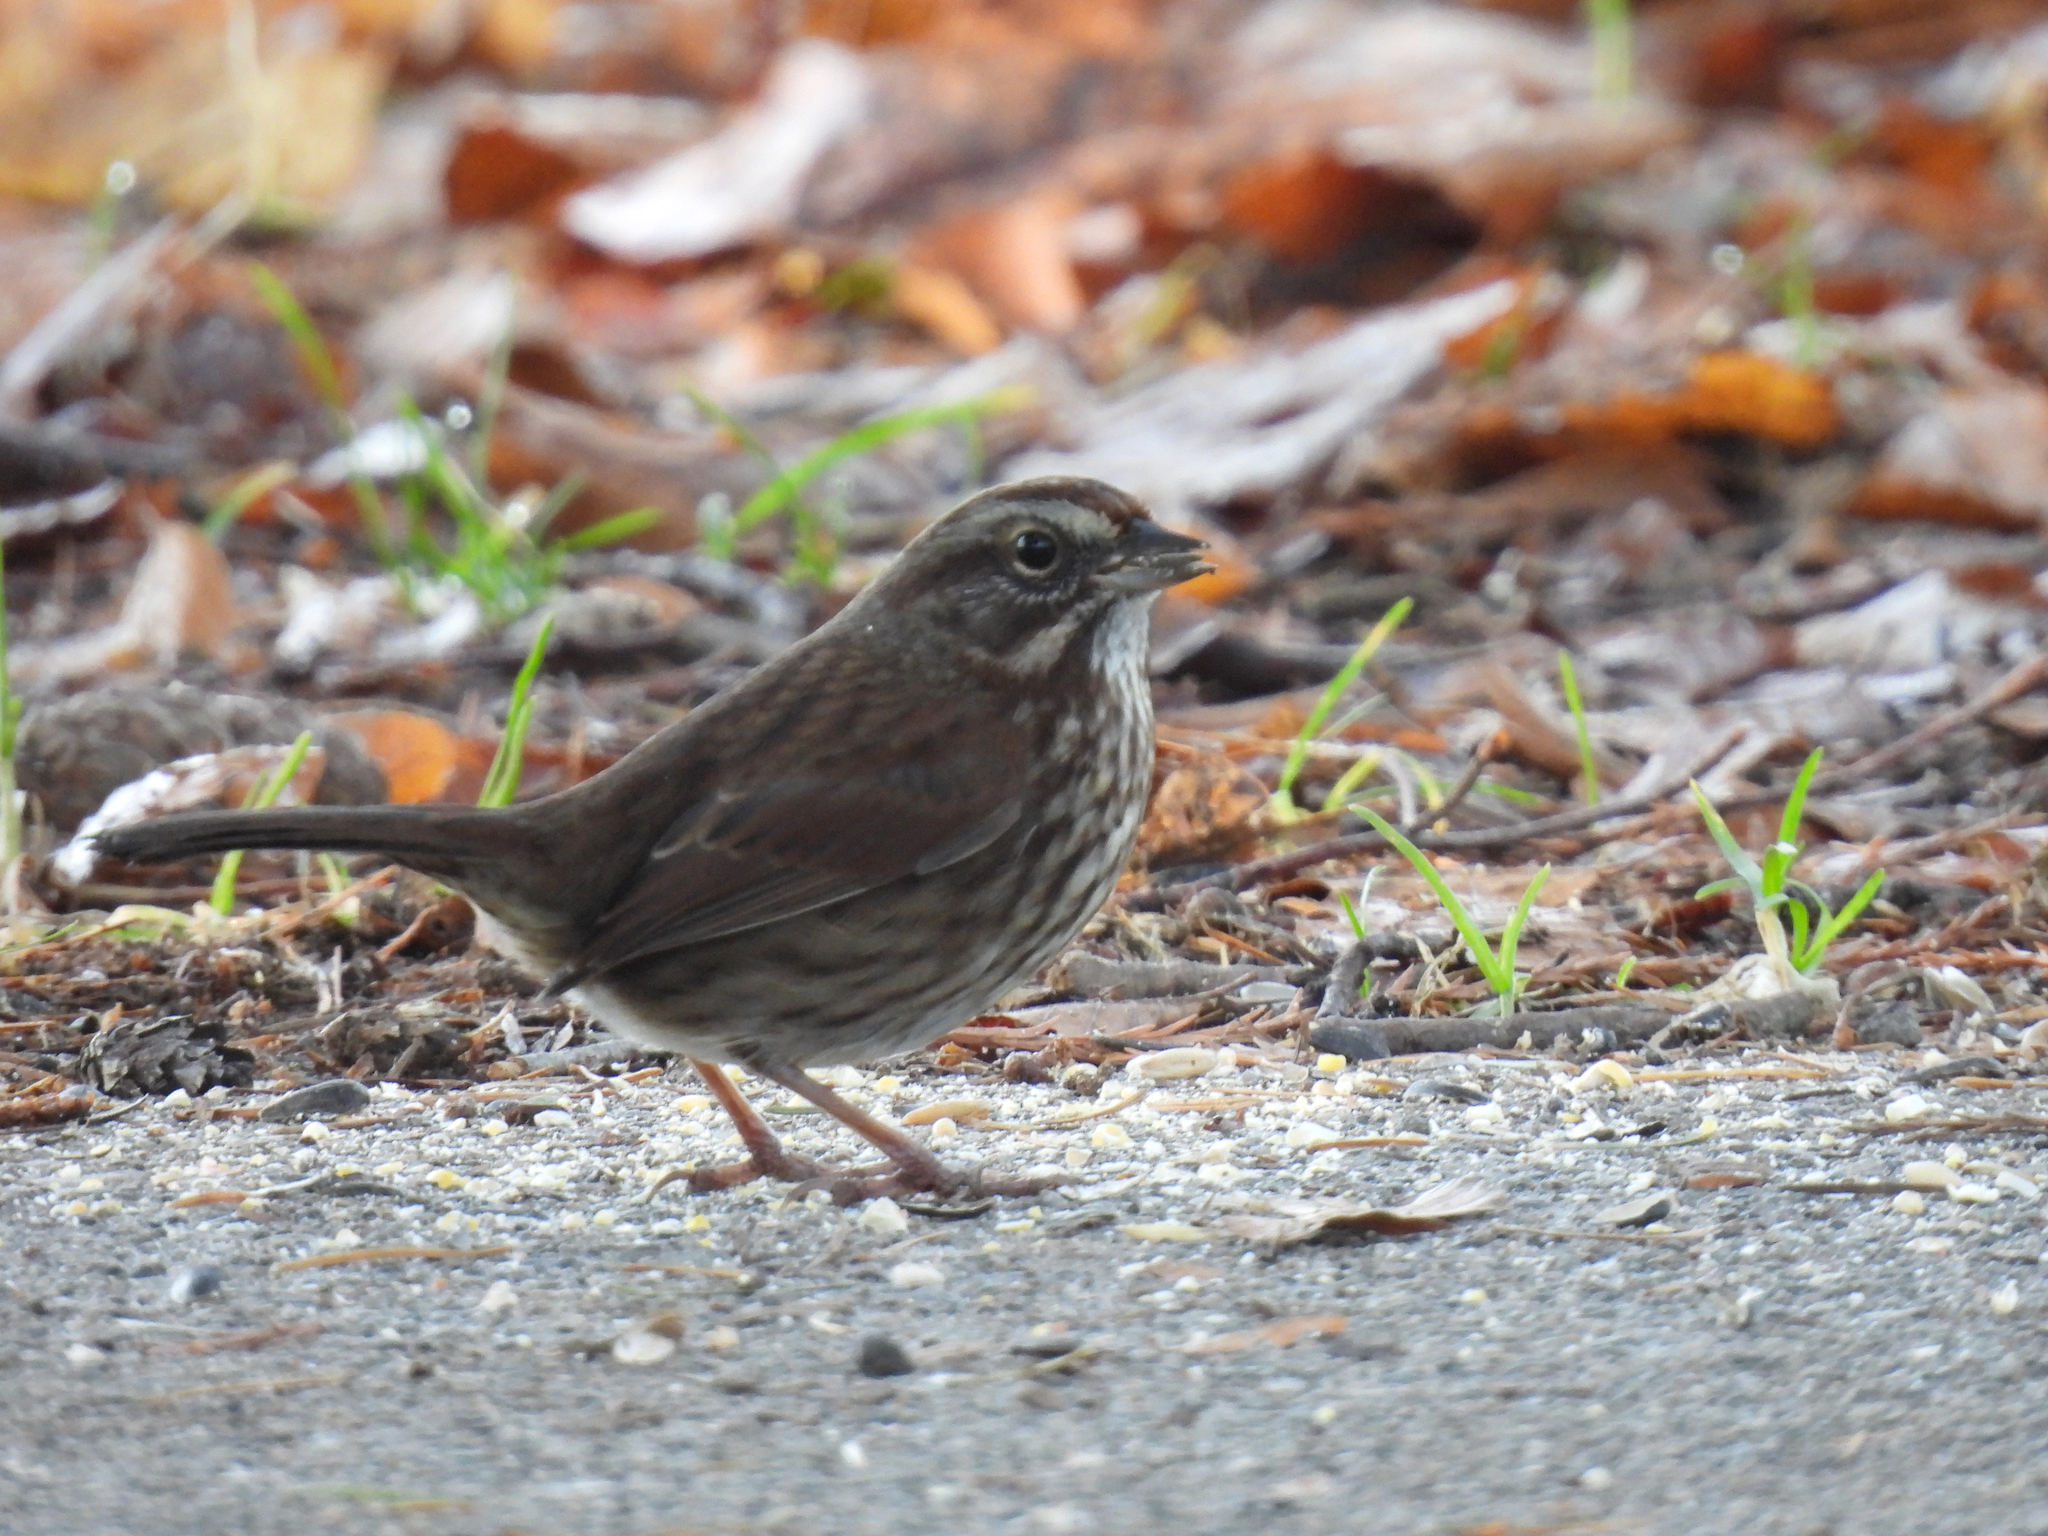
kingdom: Animalia
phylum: Chordata
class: Aves
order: Passeriformes
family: Passerellidae
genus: Melospiza
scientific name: Melospiza melodia
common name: Song sparrow
